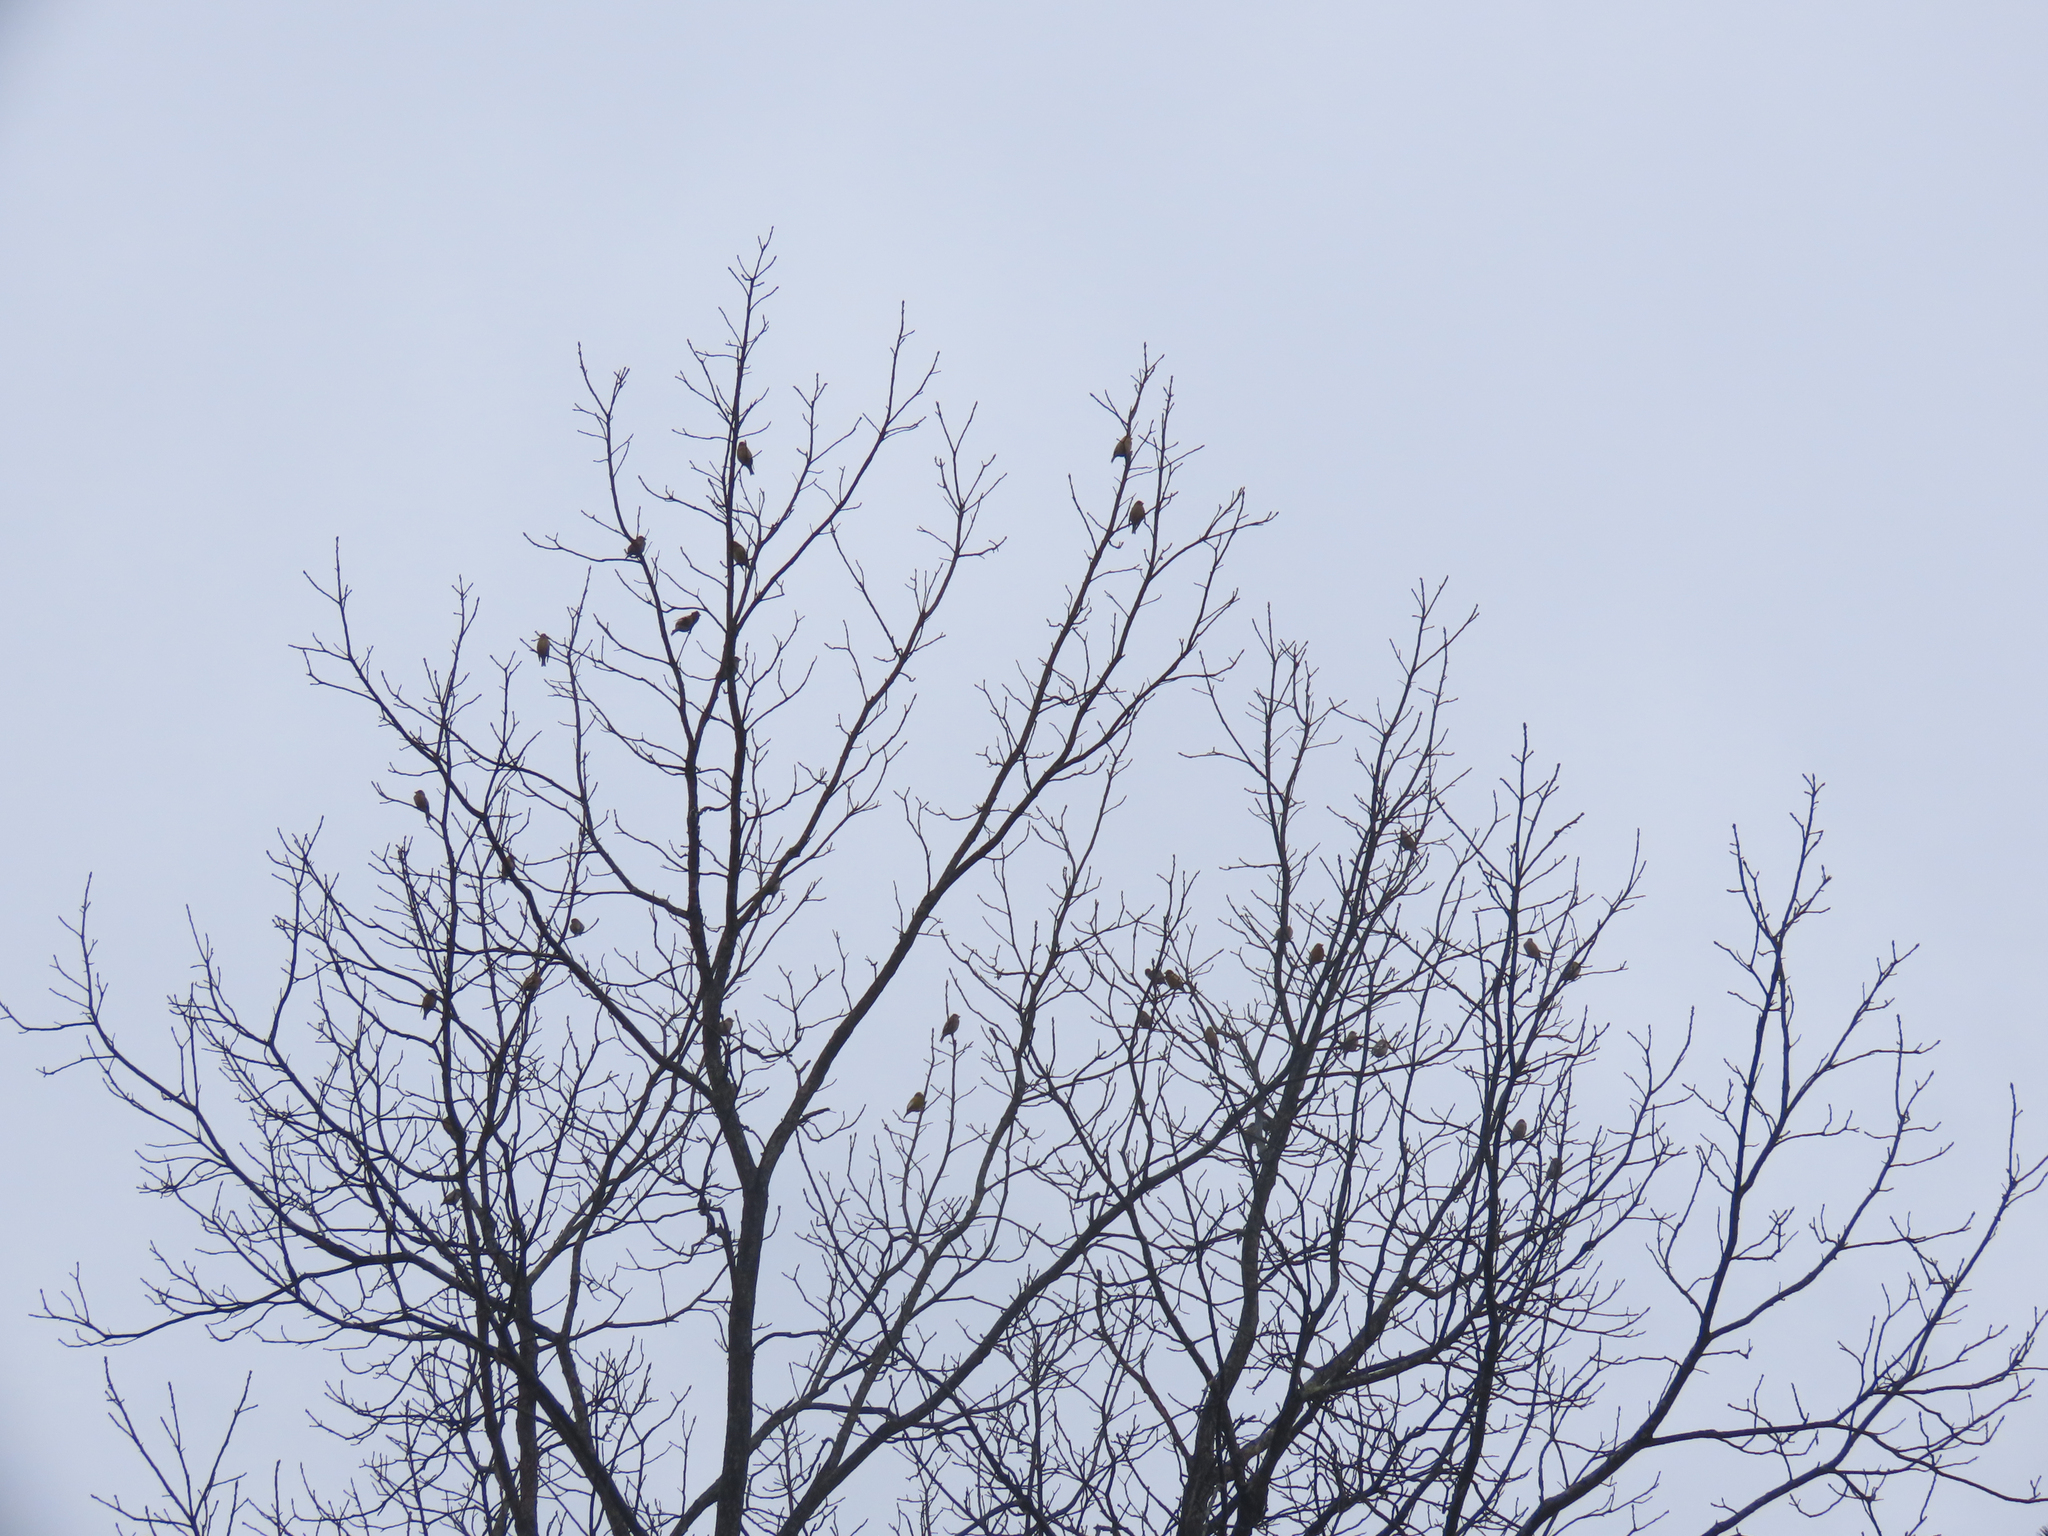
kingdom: Animalia
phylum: Chordata
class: Aves
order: Passeriformes
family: Fringillidae
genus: Hesperiphona
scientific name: Hesperiphona vespertina
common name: Evening grosbeak
